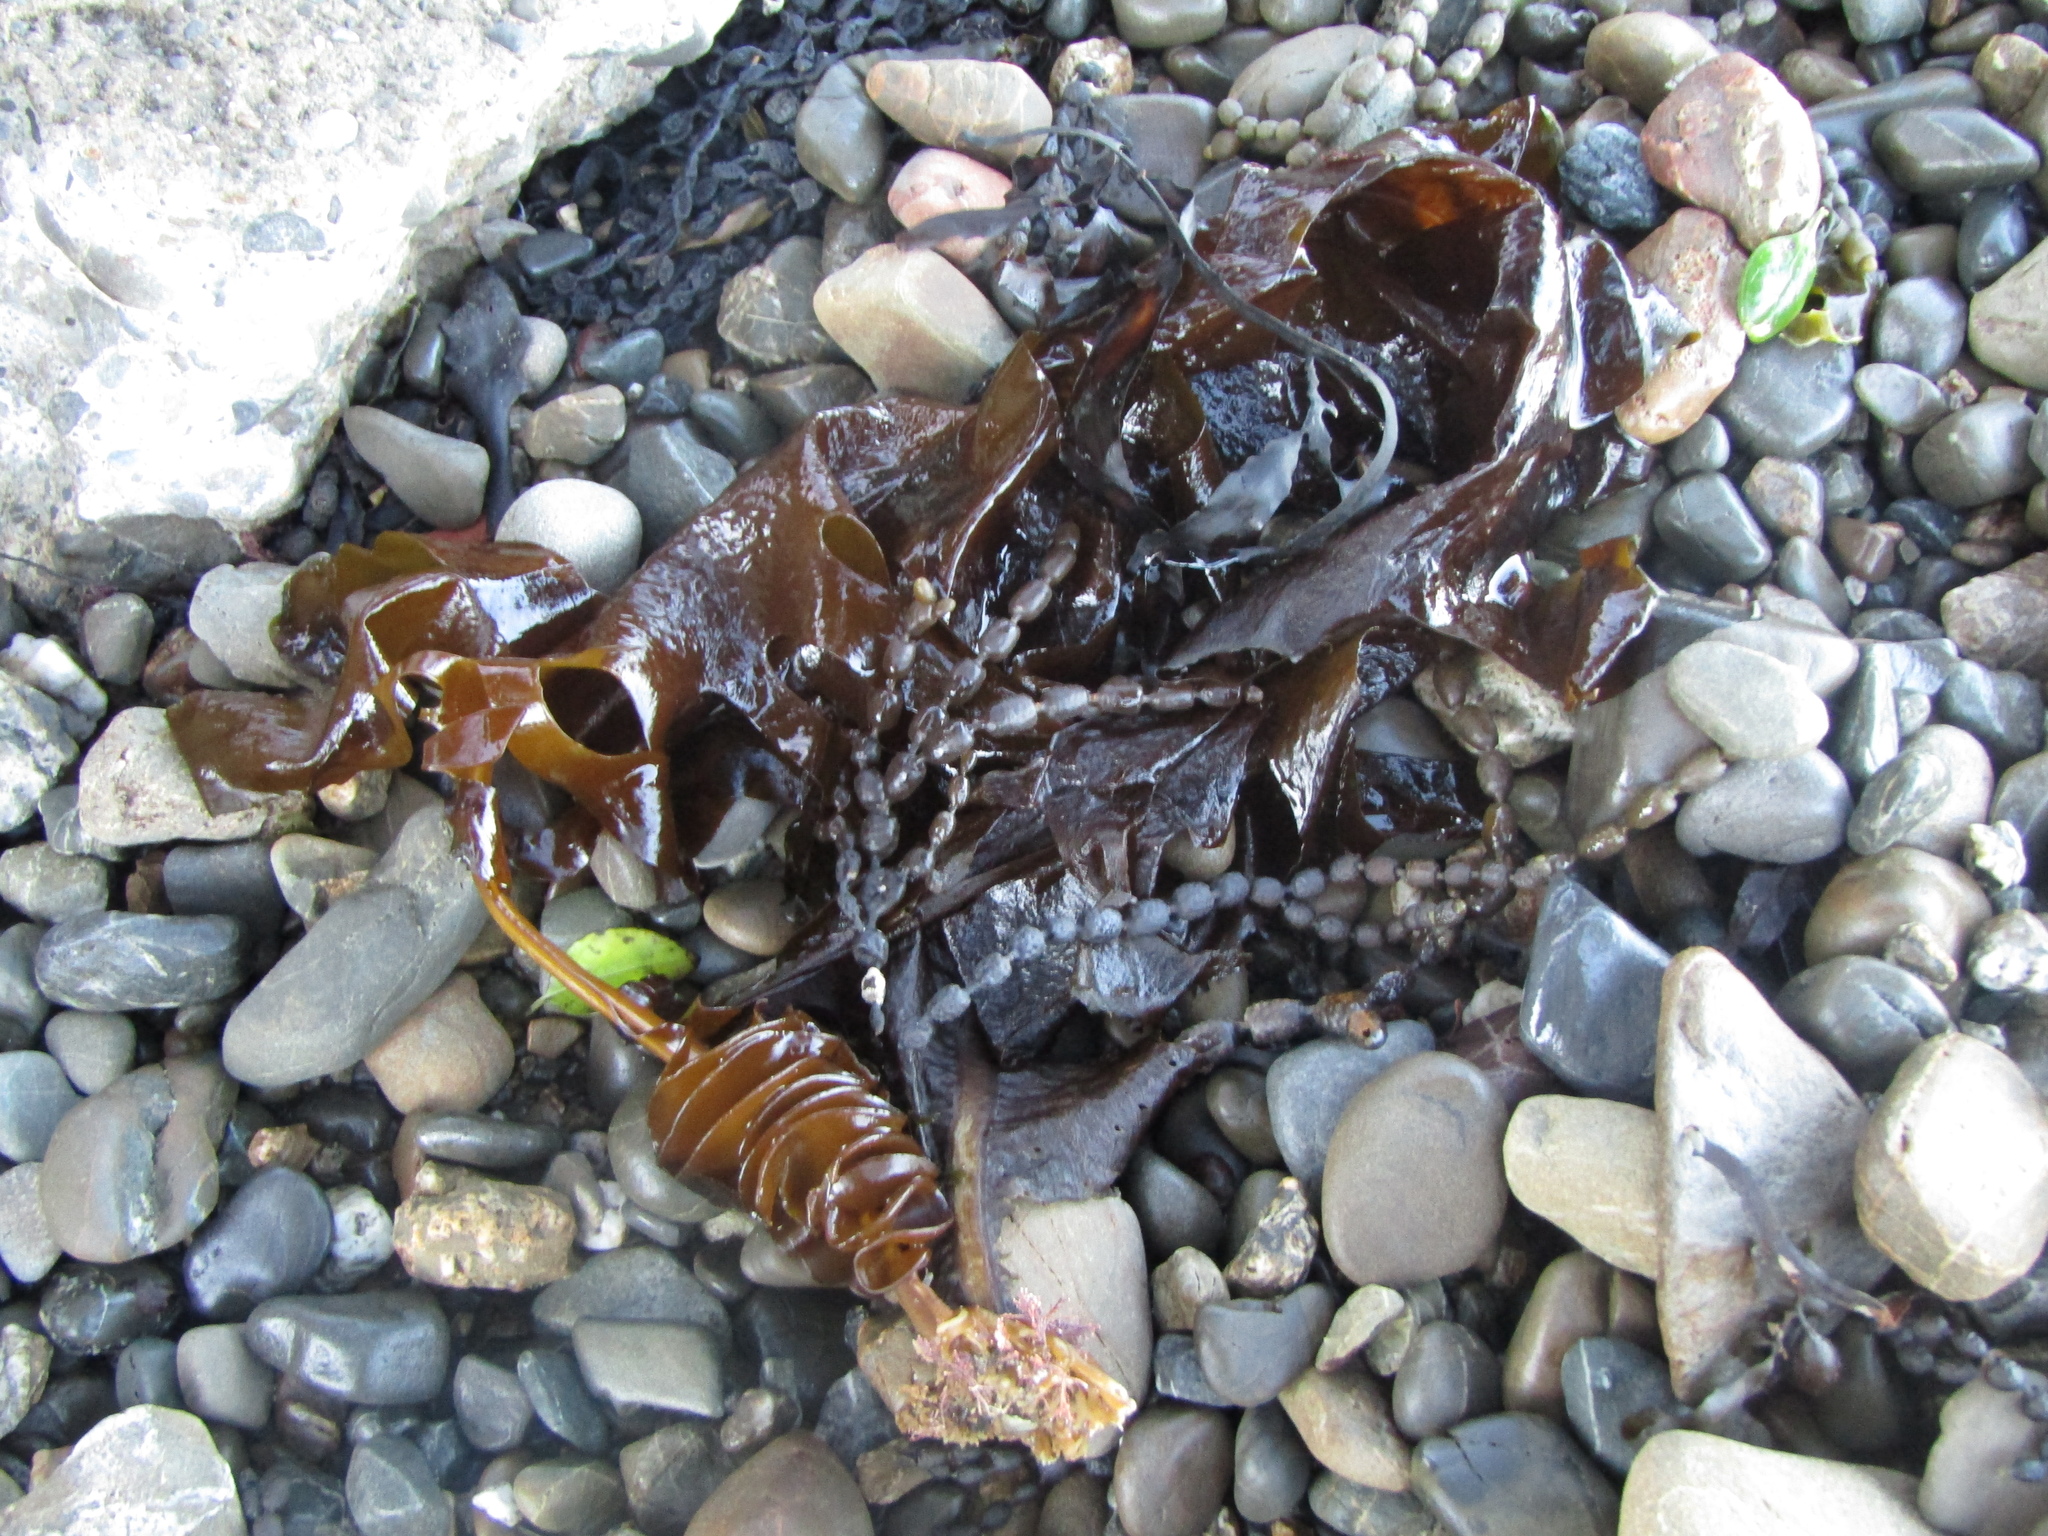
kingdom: Chromista
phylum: Ochrophyta
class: Phaeophyceae
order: Laminariales
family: Alariaceae
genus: Undaria
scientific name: Undaria pinnatifida
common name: Asian kelp
